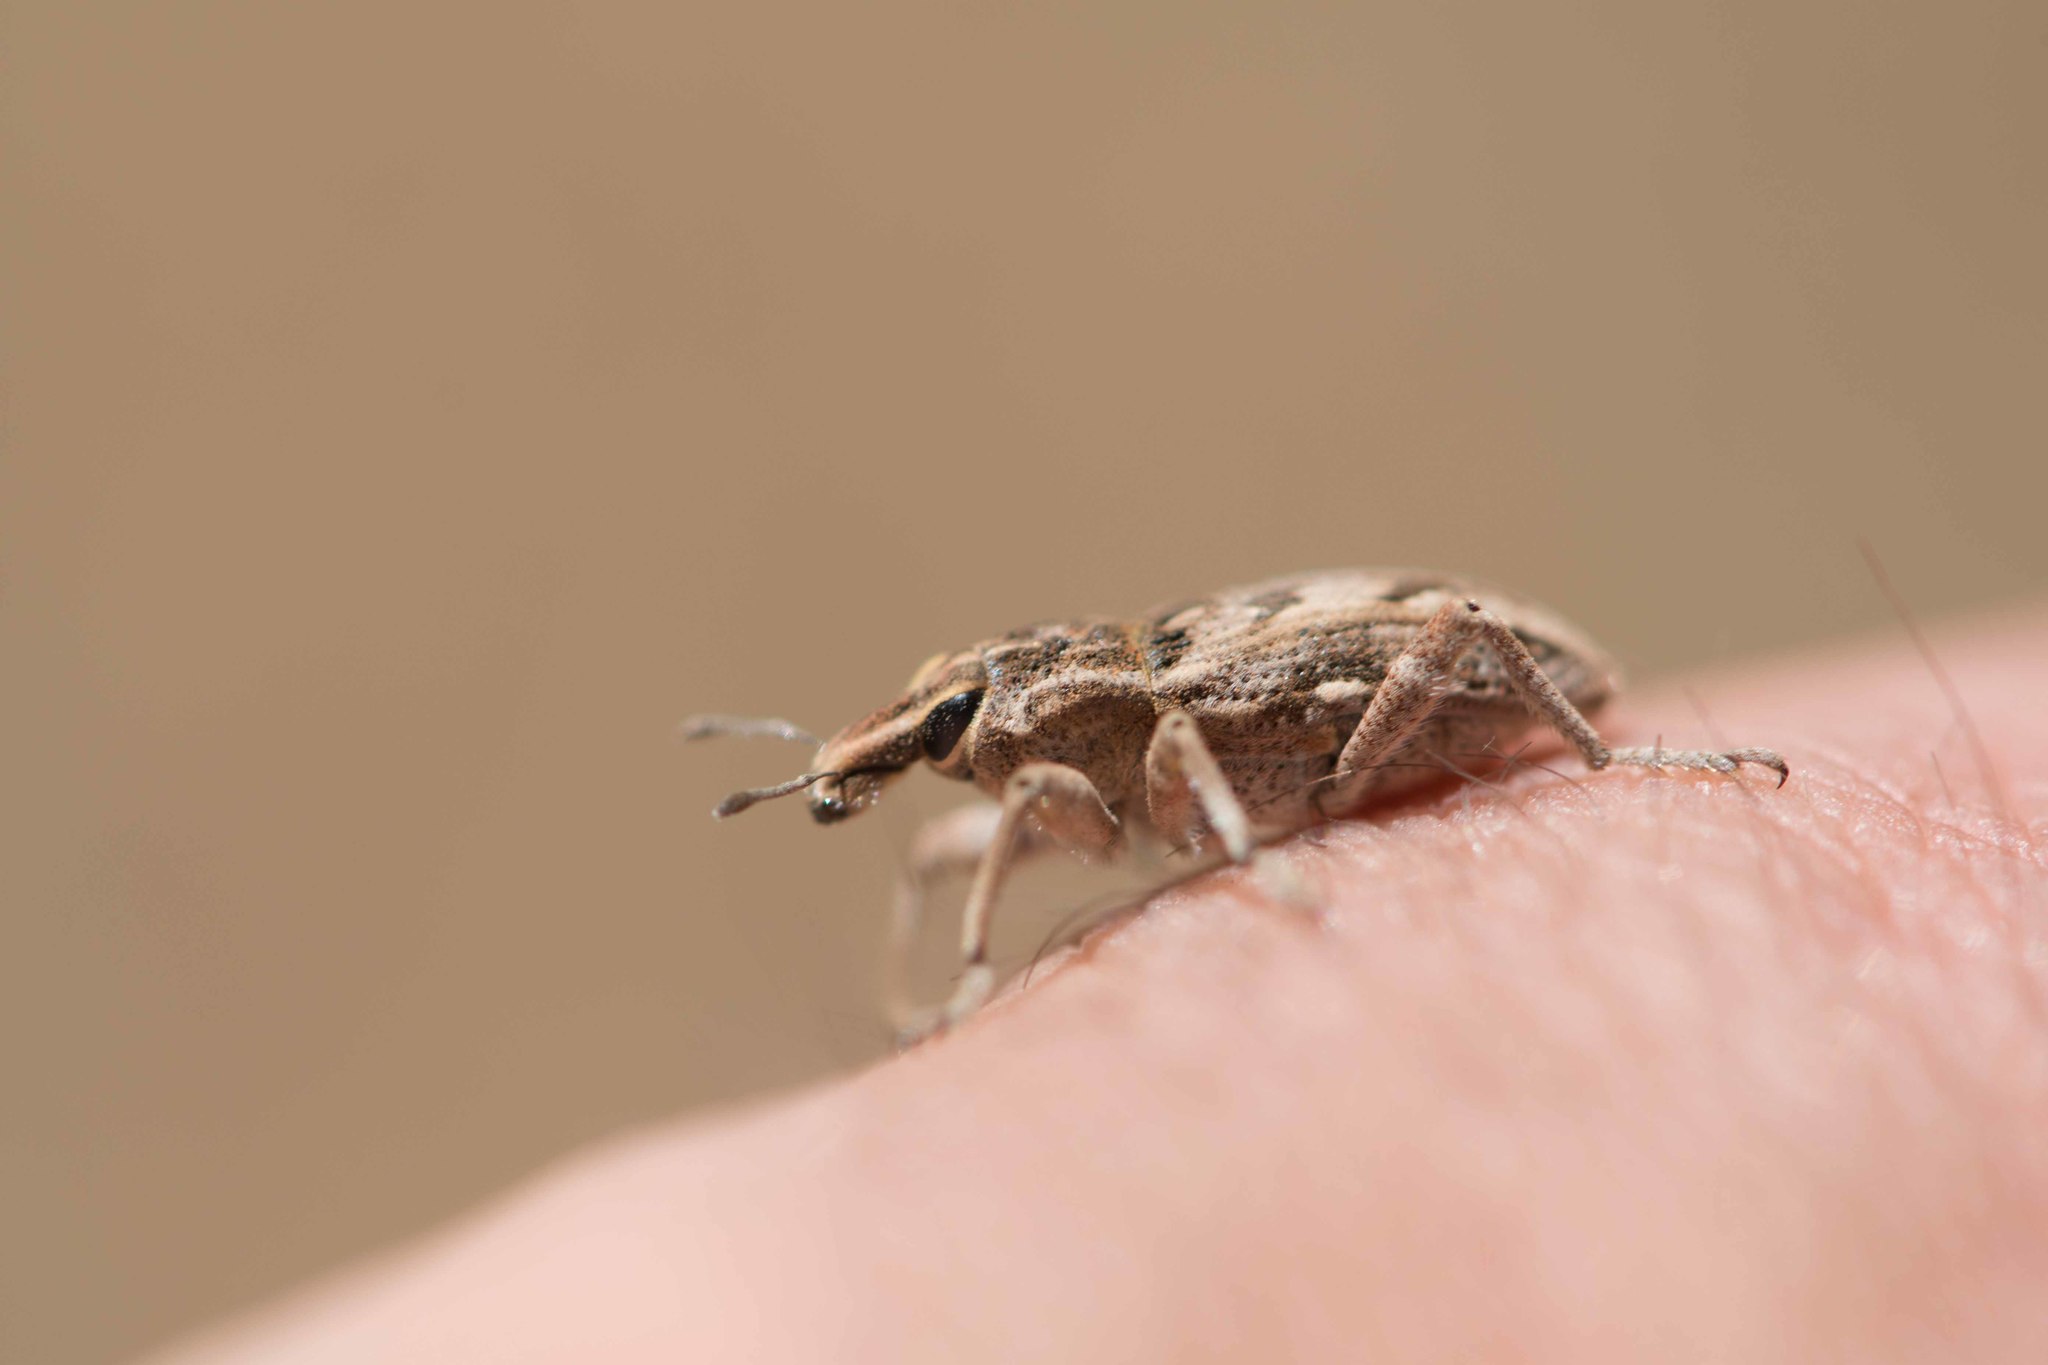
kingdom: Animalia
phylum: Arthropoda
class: Insecta
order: Coleoptera
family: Curculionidae
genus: Coniocleonus
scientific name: Coniocleonus excoriatus
